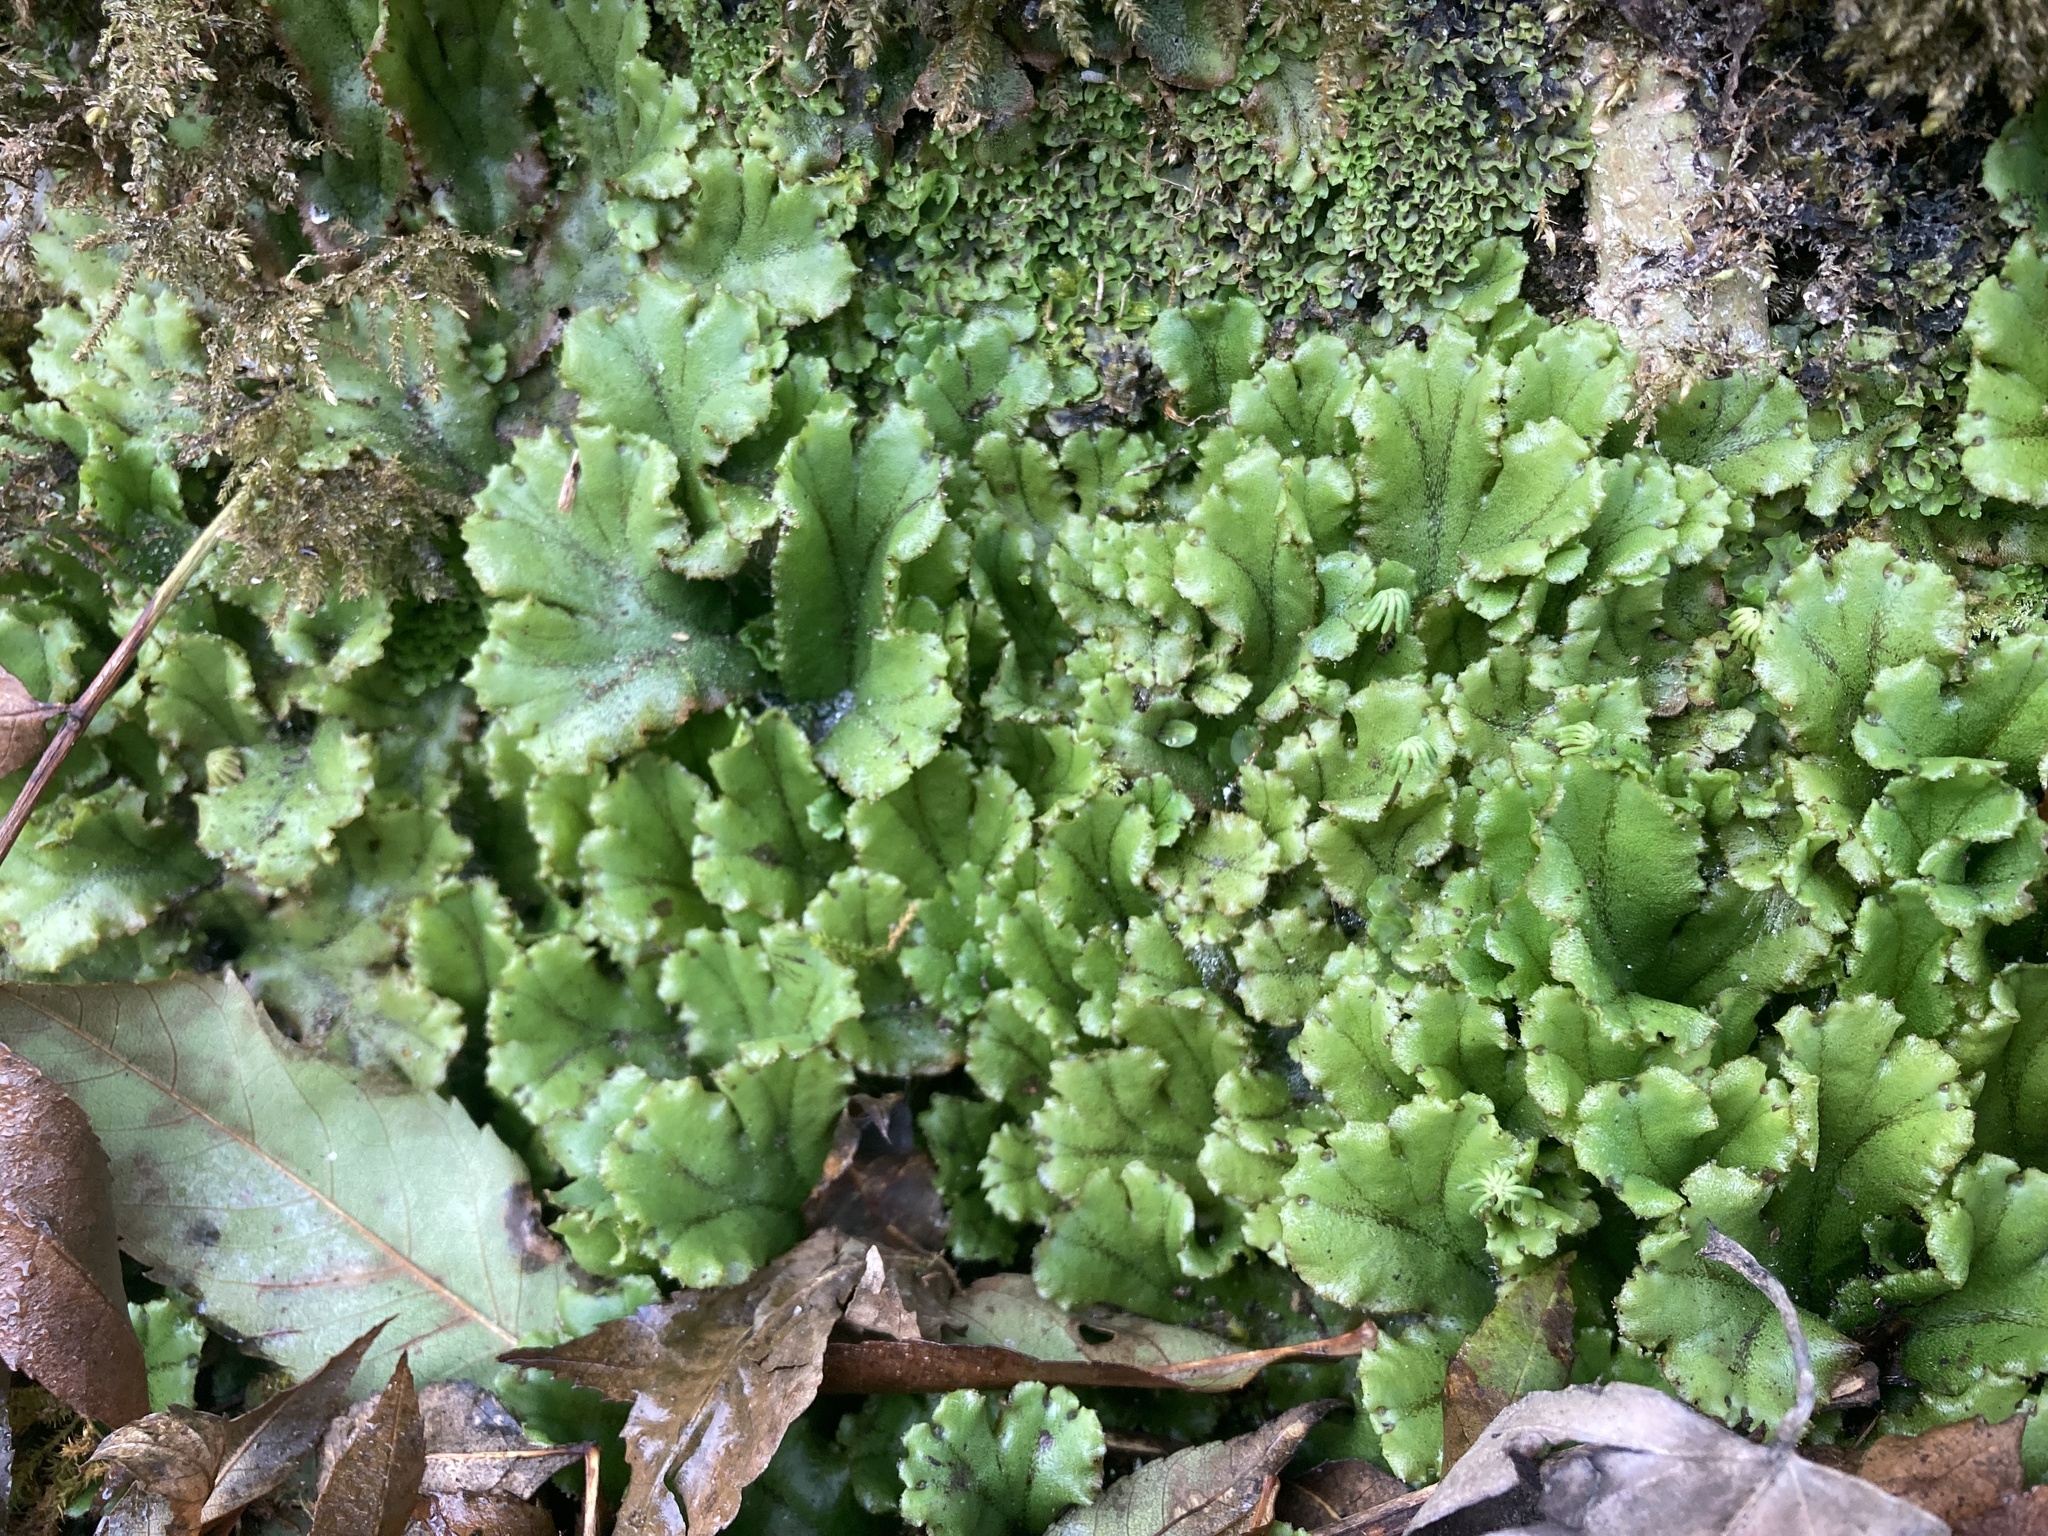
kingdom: Plantae
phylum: Marchantiophyta
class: Marchantiopsida
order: Marchantiales
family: Marchantiaceae
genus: Marchantia
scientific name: Marchantia polymorpha
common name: Common liverwort
